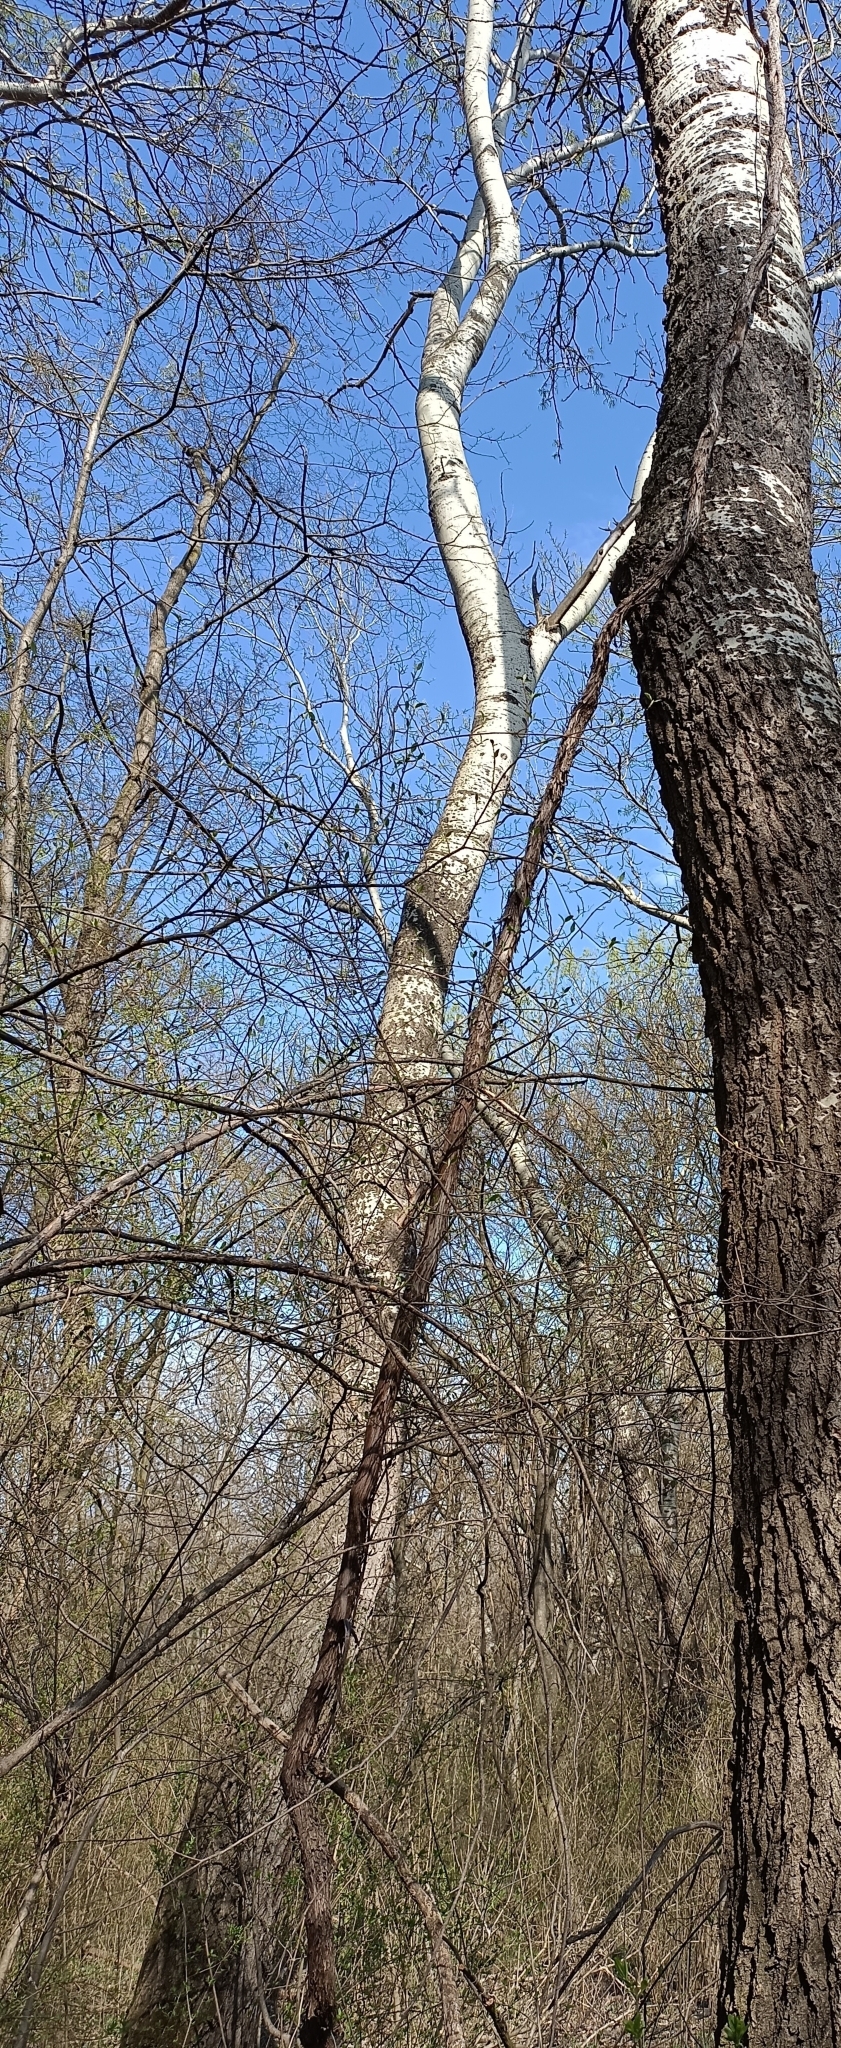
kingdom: Plantae
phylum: Tracheophyta
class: Magnoliopsida
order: Vitales
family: Vitaceae
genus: Vitis
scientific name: Vitis vinifera
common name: Grape-vine
